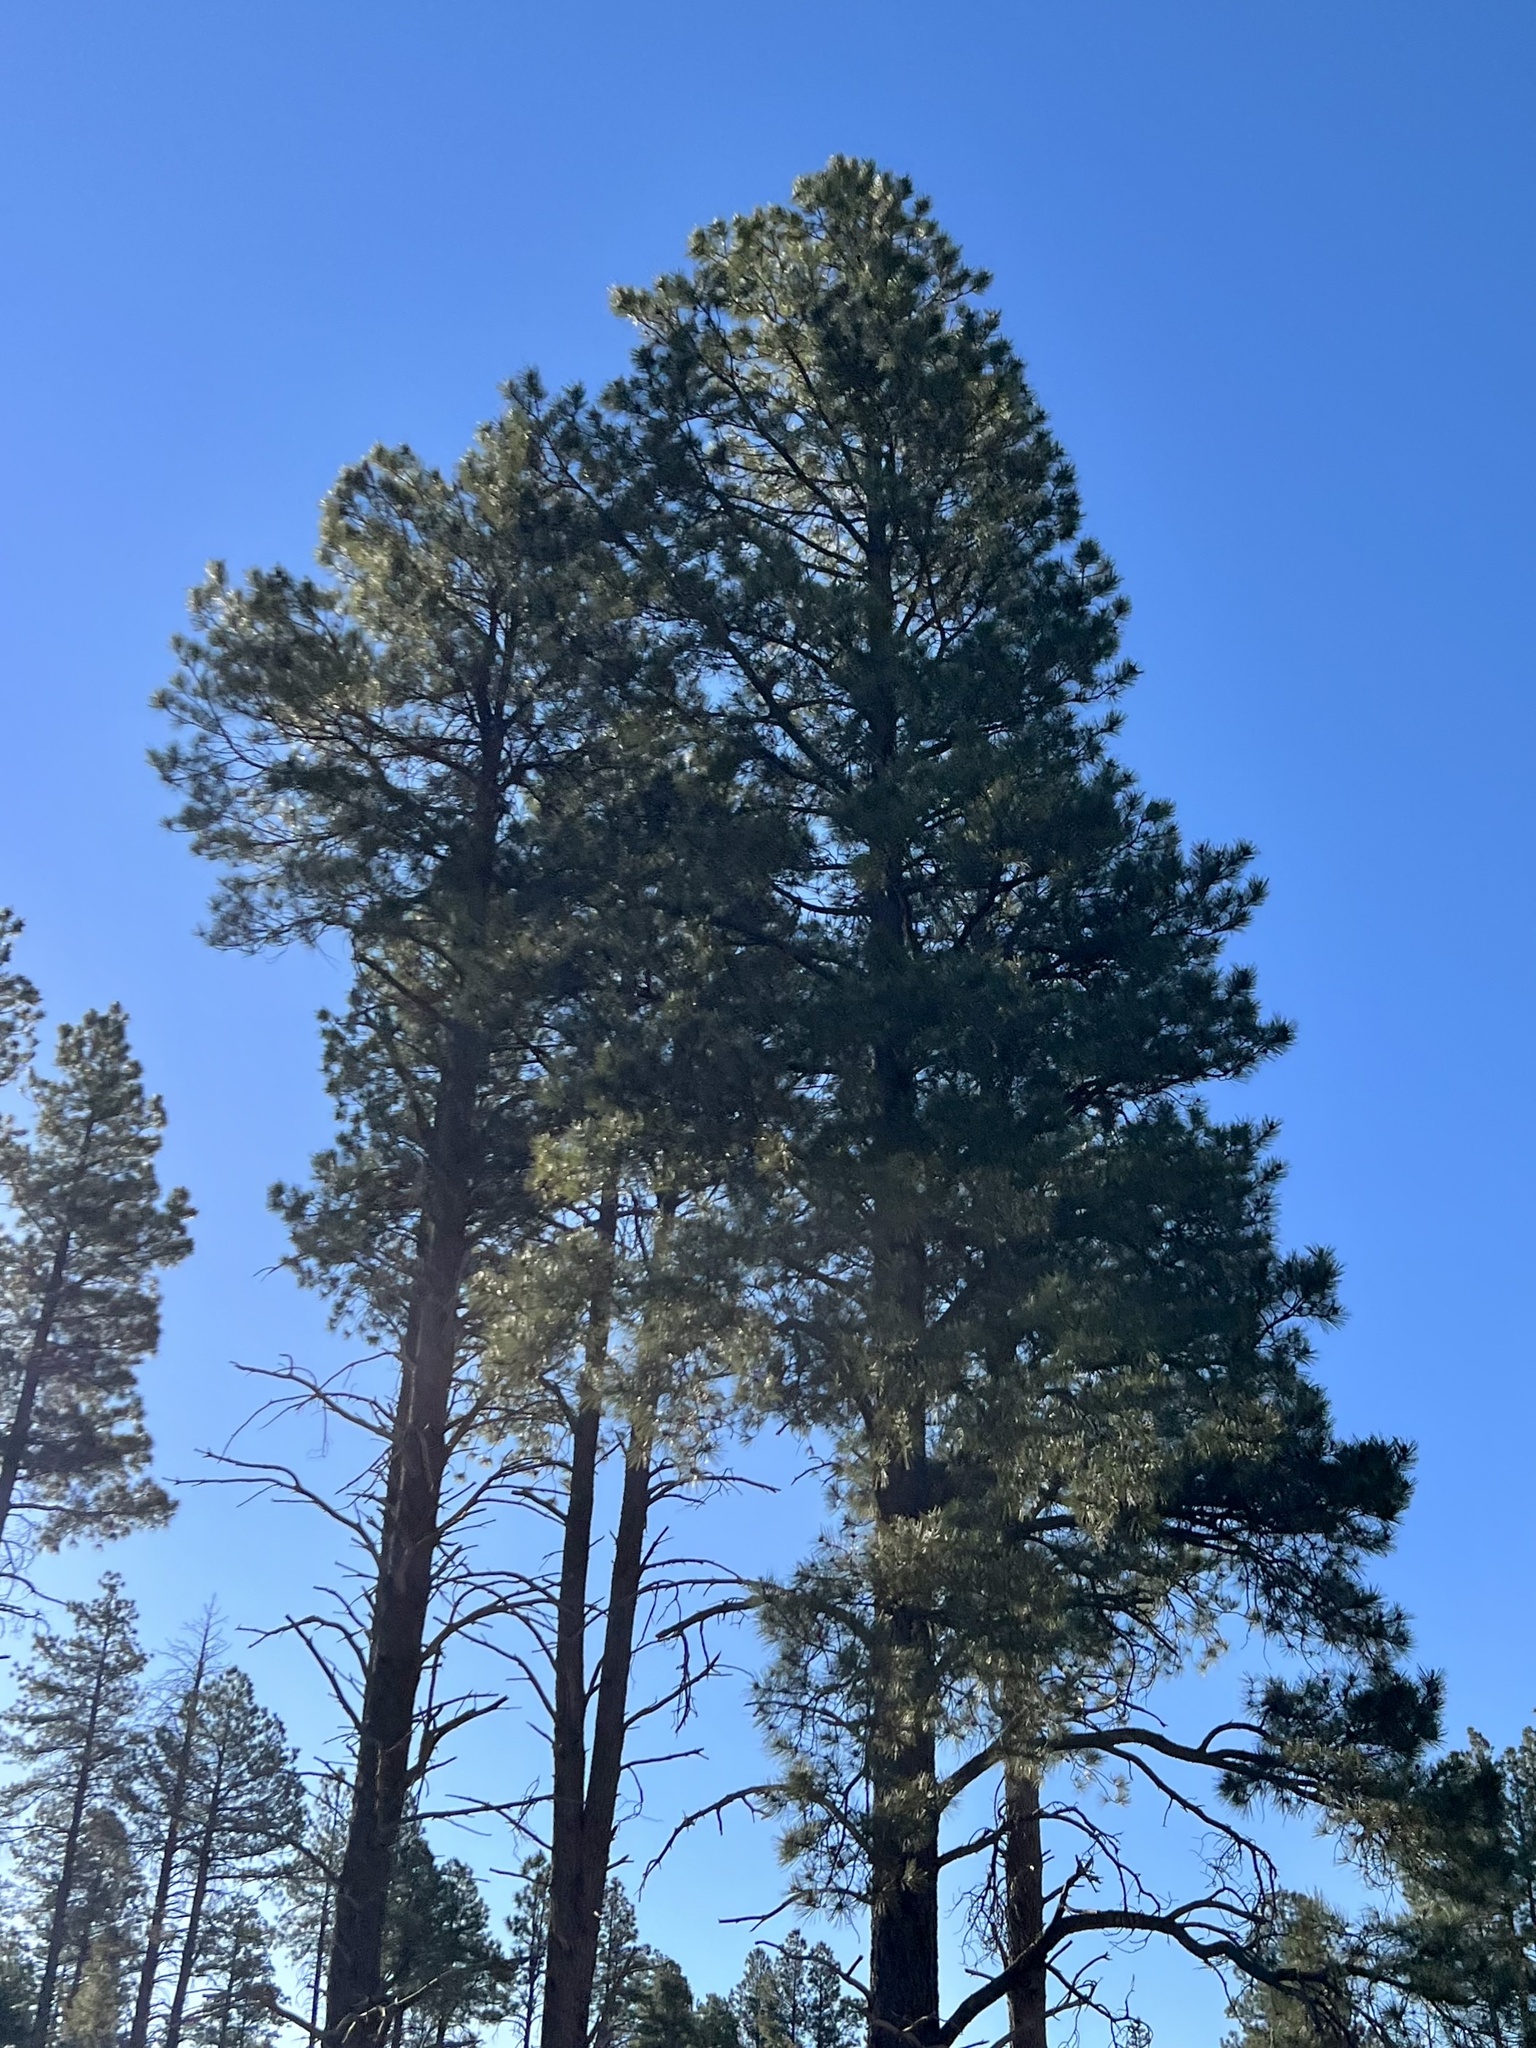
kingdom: Plantae
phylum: Tracheophyta
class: Pinopsida
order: Pinales
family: Pinaceae
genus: Pinus
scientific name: Pinus ponderosa
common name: Western yellow-pine
